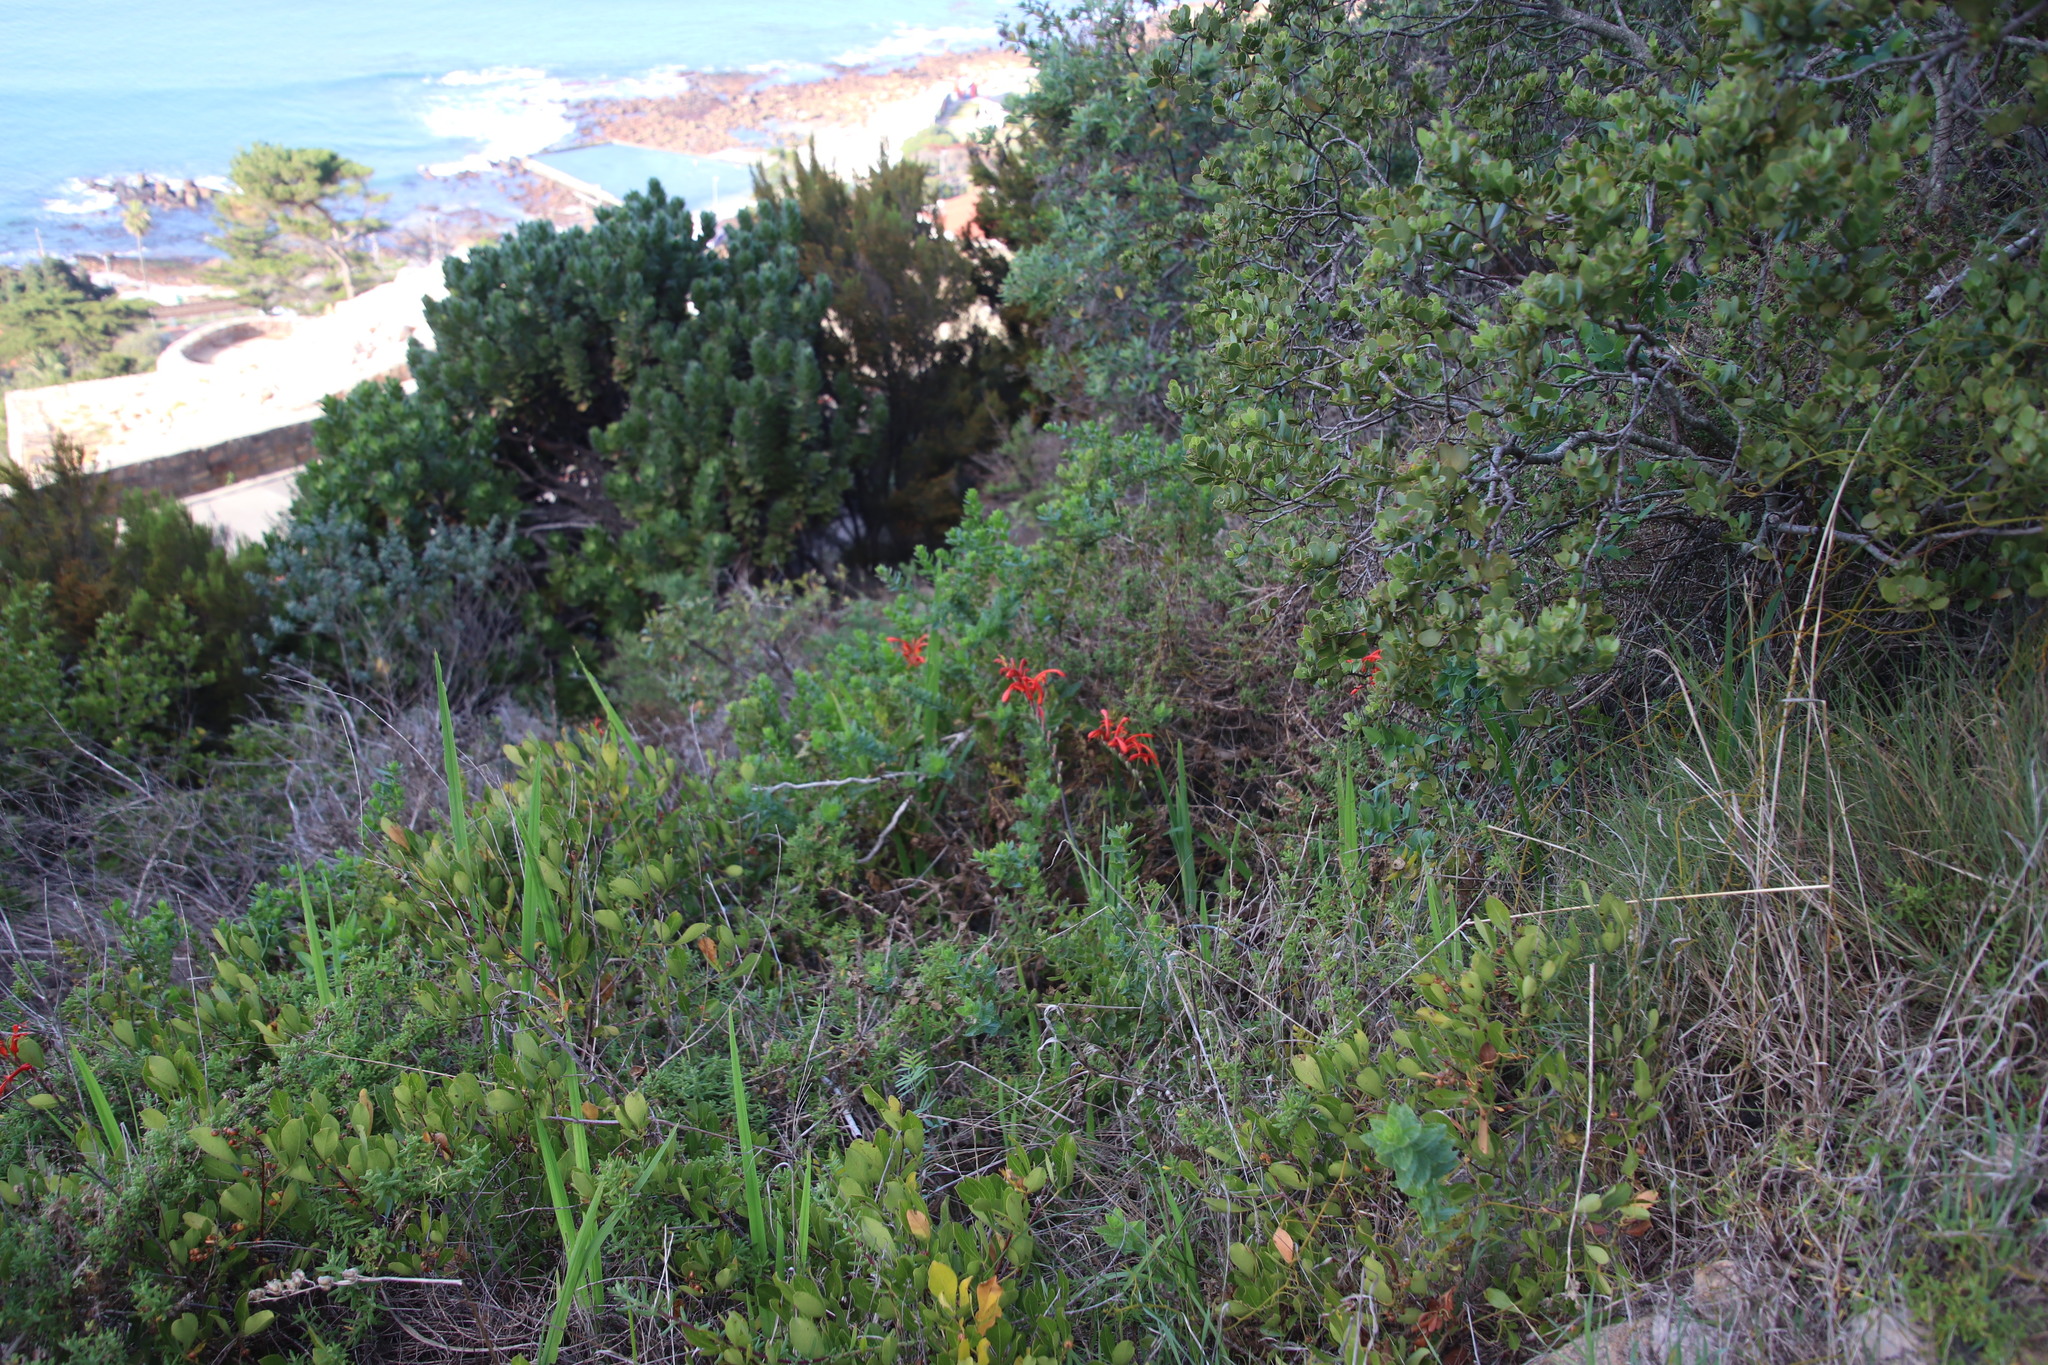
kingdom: Plantae
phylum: Tracheophyta
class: Liliopsida
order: Asparagales
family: Iridaceae
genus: Chasmanthe
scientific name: Chasmanthe aethiopica
